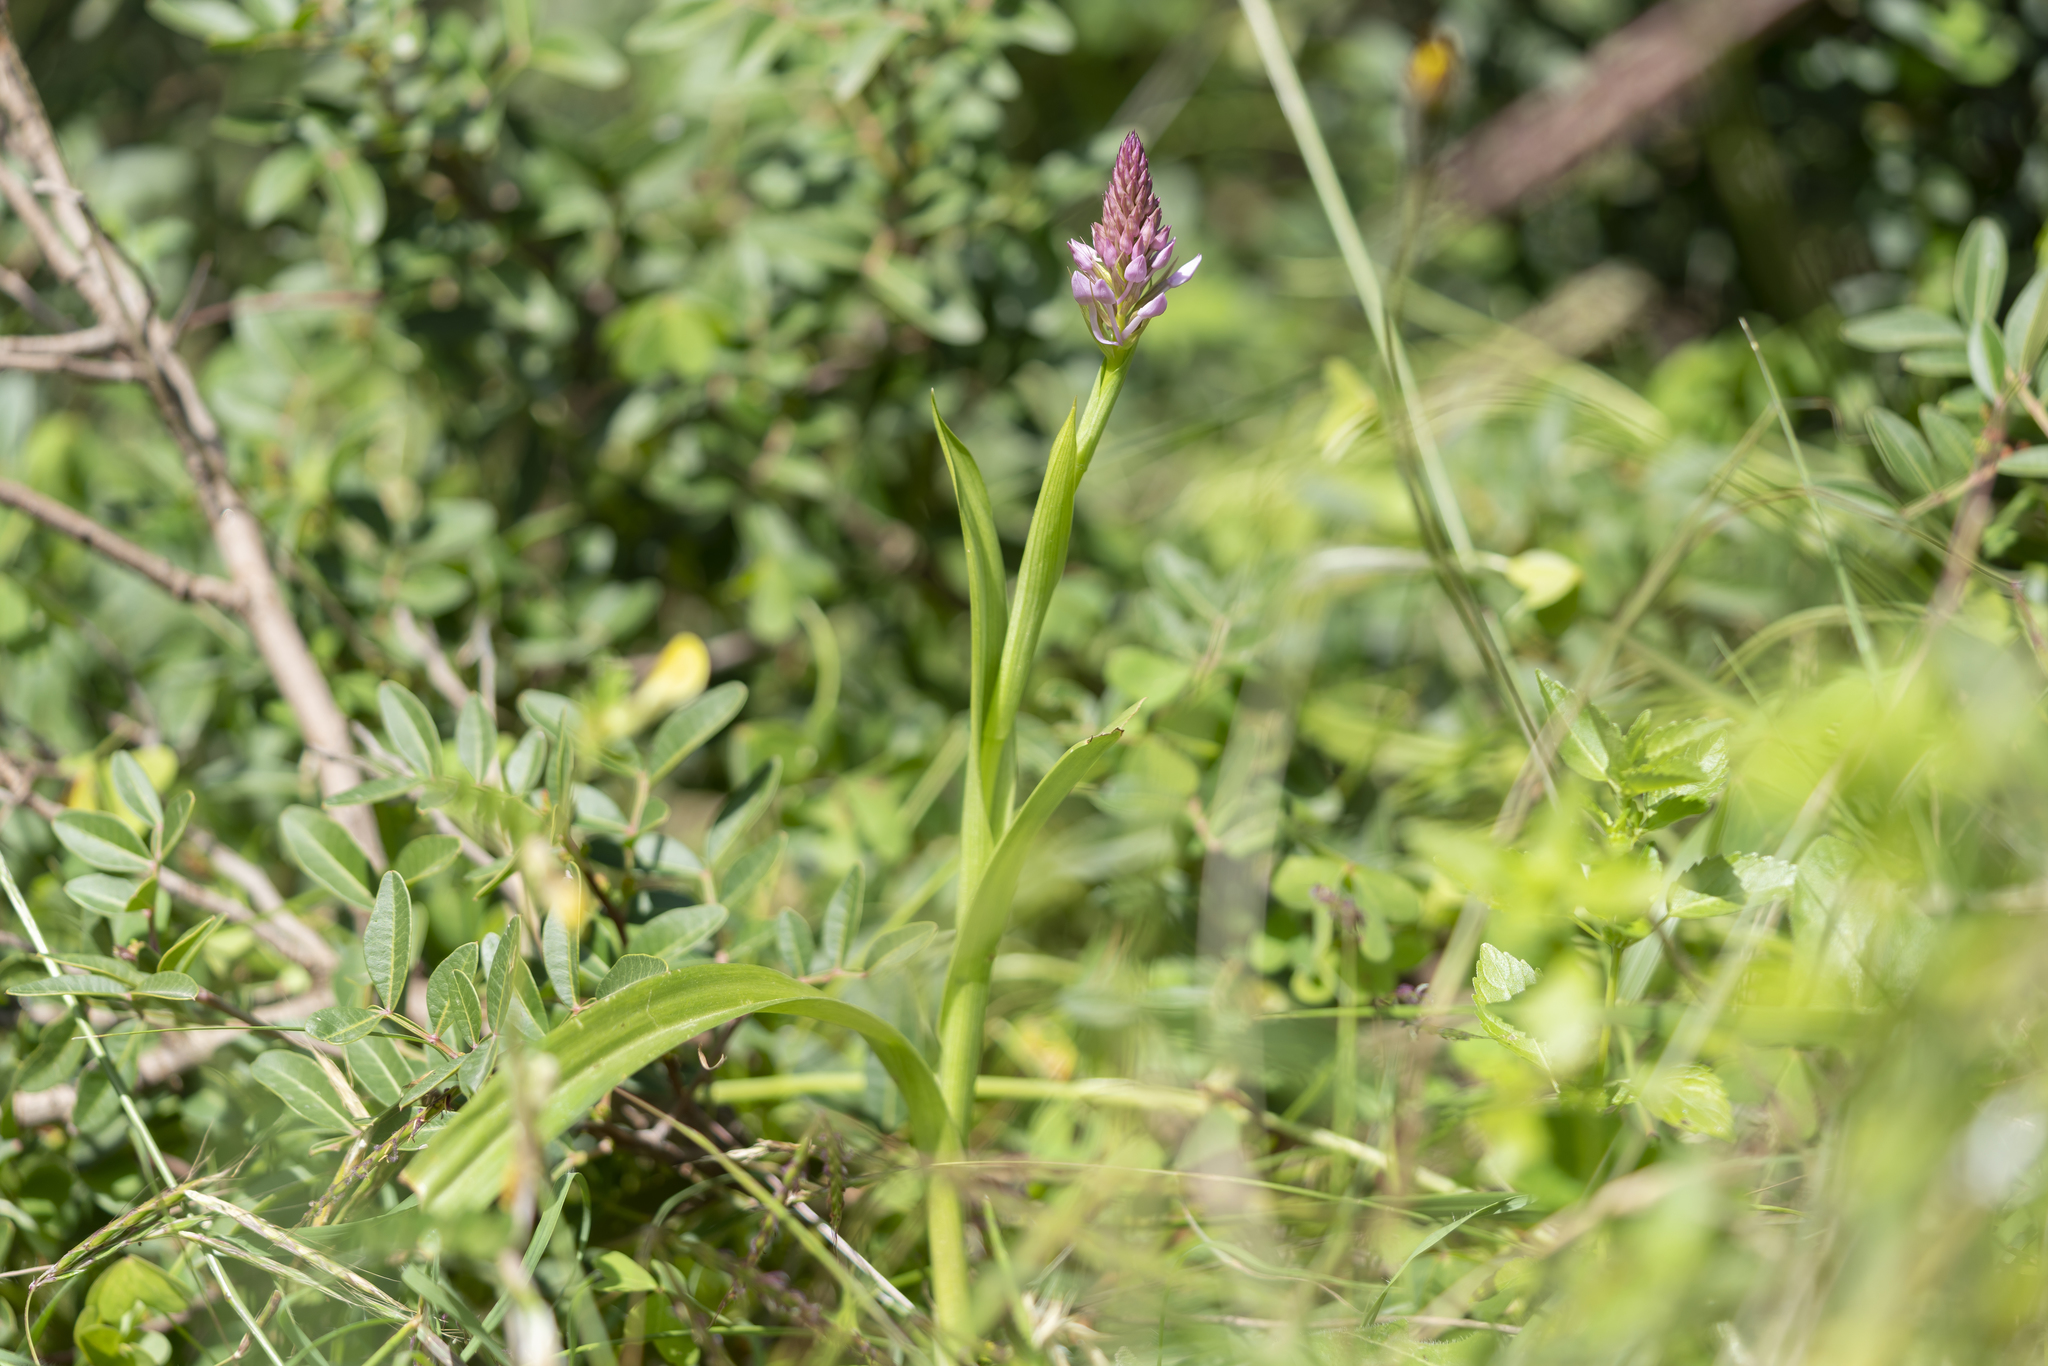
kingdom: Plantae
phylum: Tracheophyta
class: Liliopsida
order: Asparagales
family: Orchidaceae
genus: Anacamptis
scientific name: Anacamptis pyramidalis
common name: Pyramidal orchid
